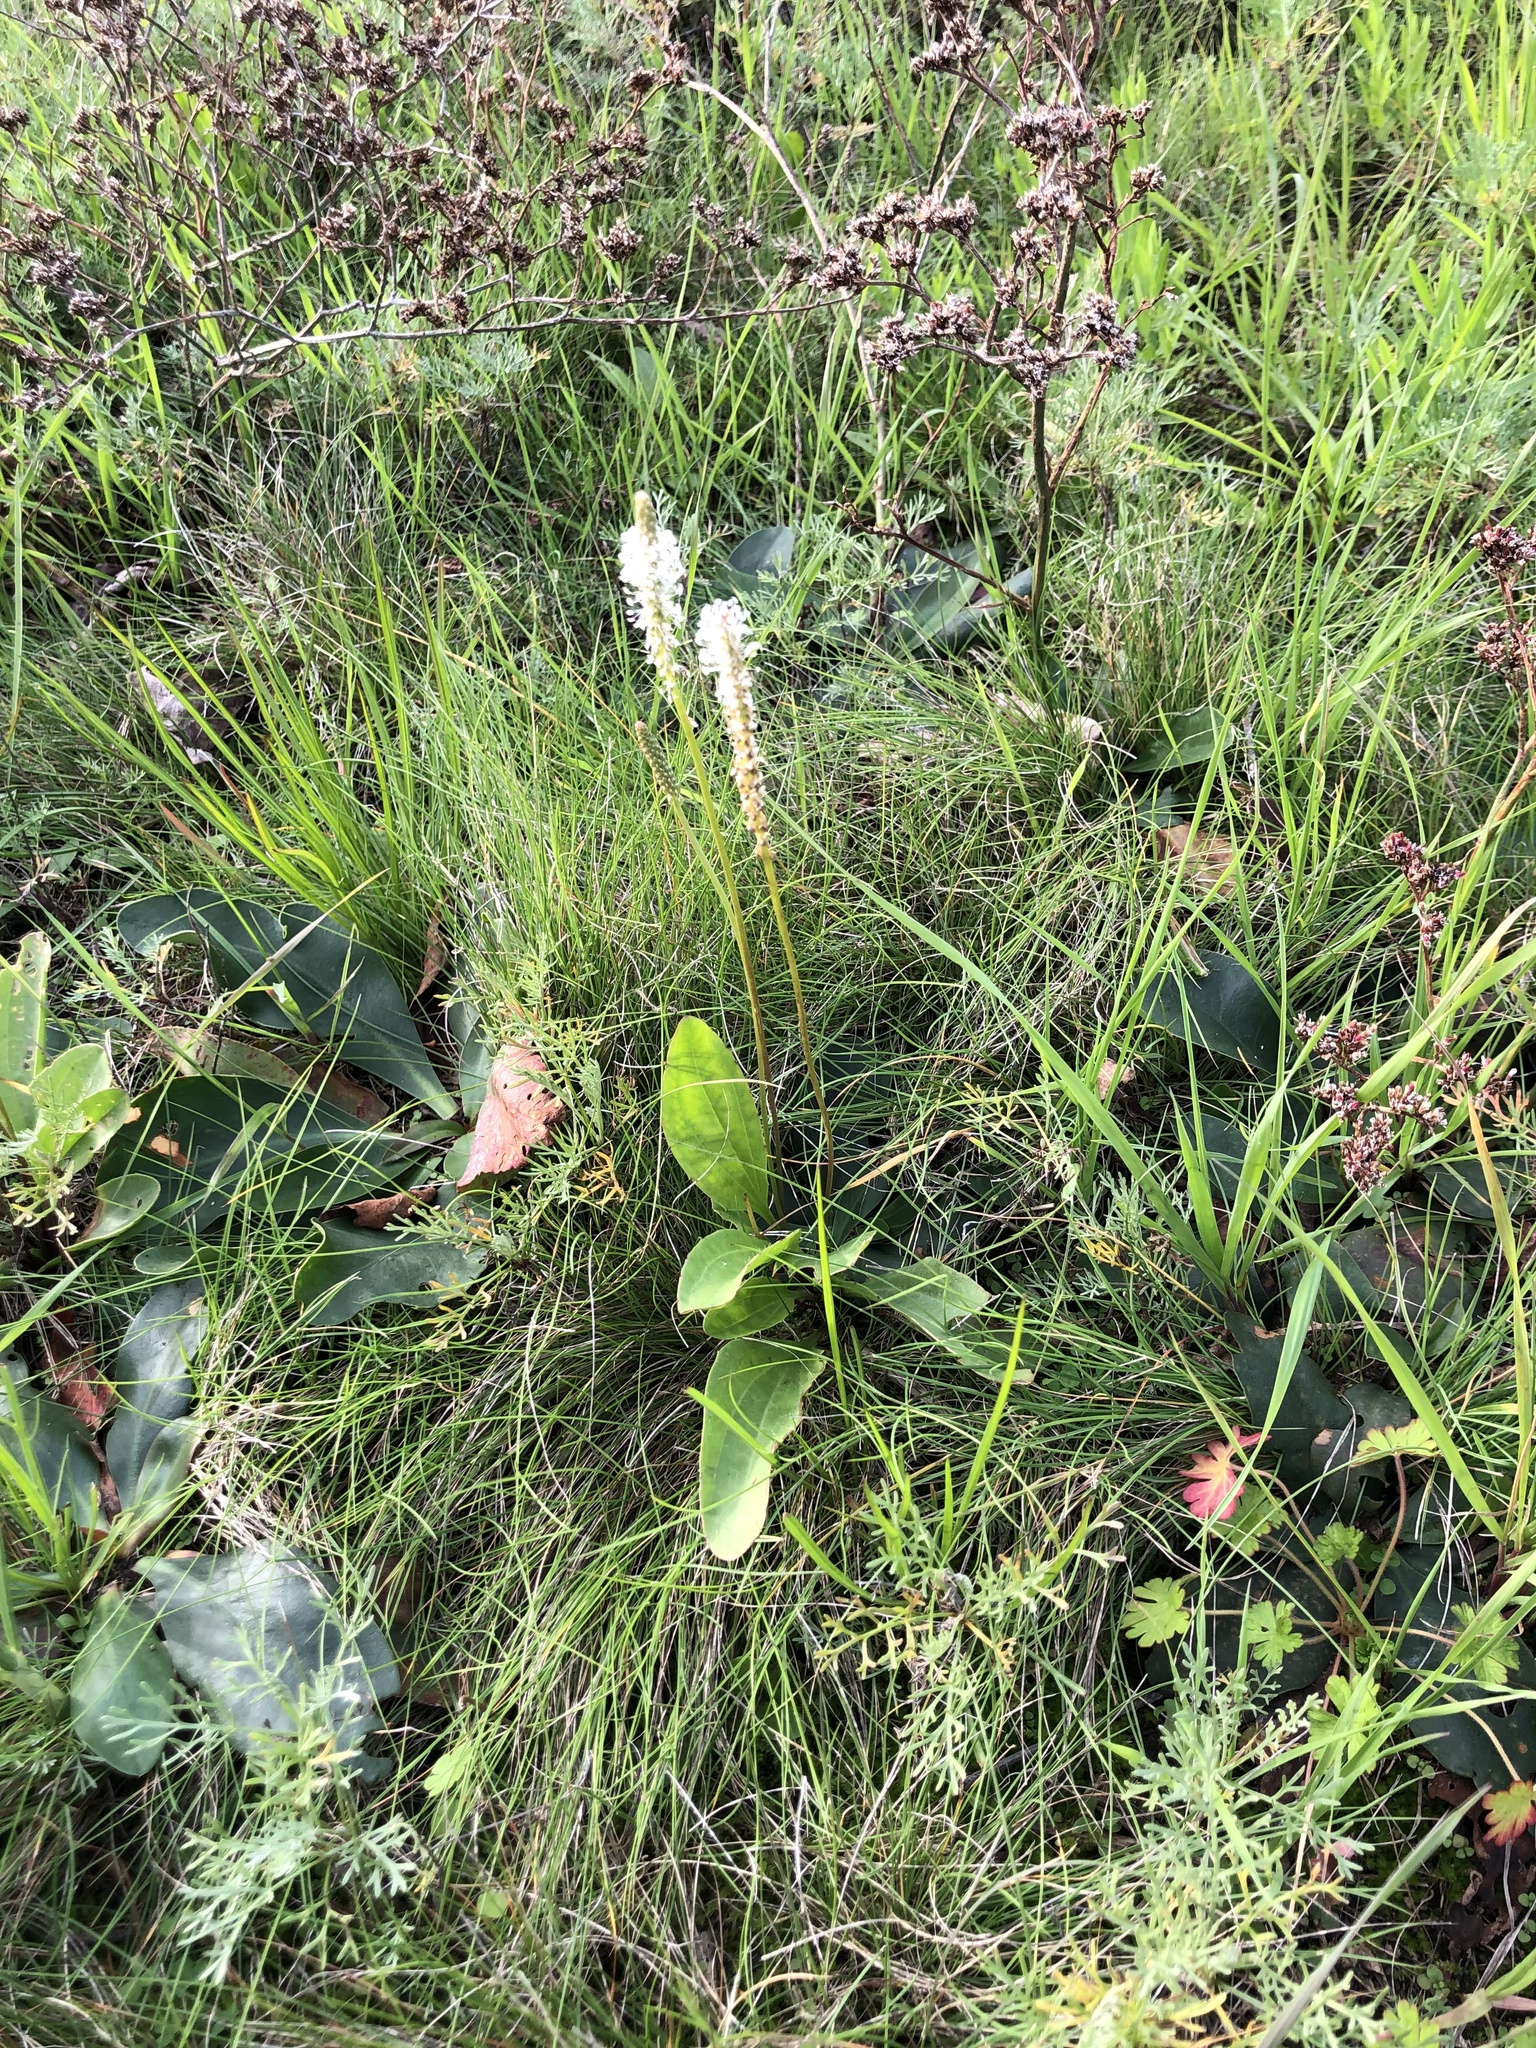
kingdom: Plantae
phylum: Tracheophyta
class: Magnoliopsida
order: Lamiales
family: Plantaginaceae
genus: Plantago
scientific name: Plantago media
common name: Hoary plantain
